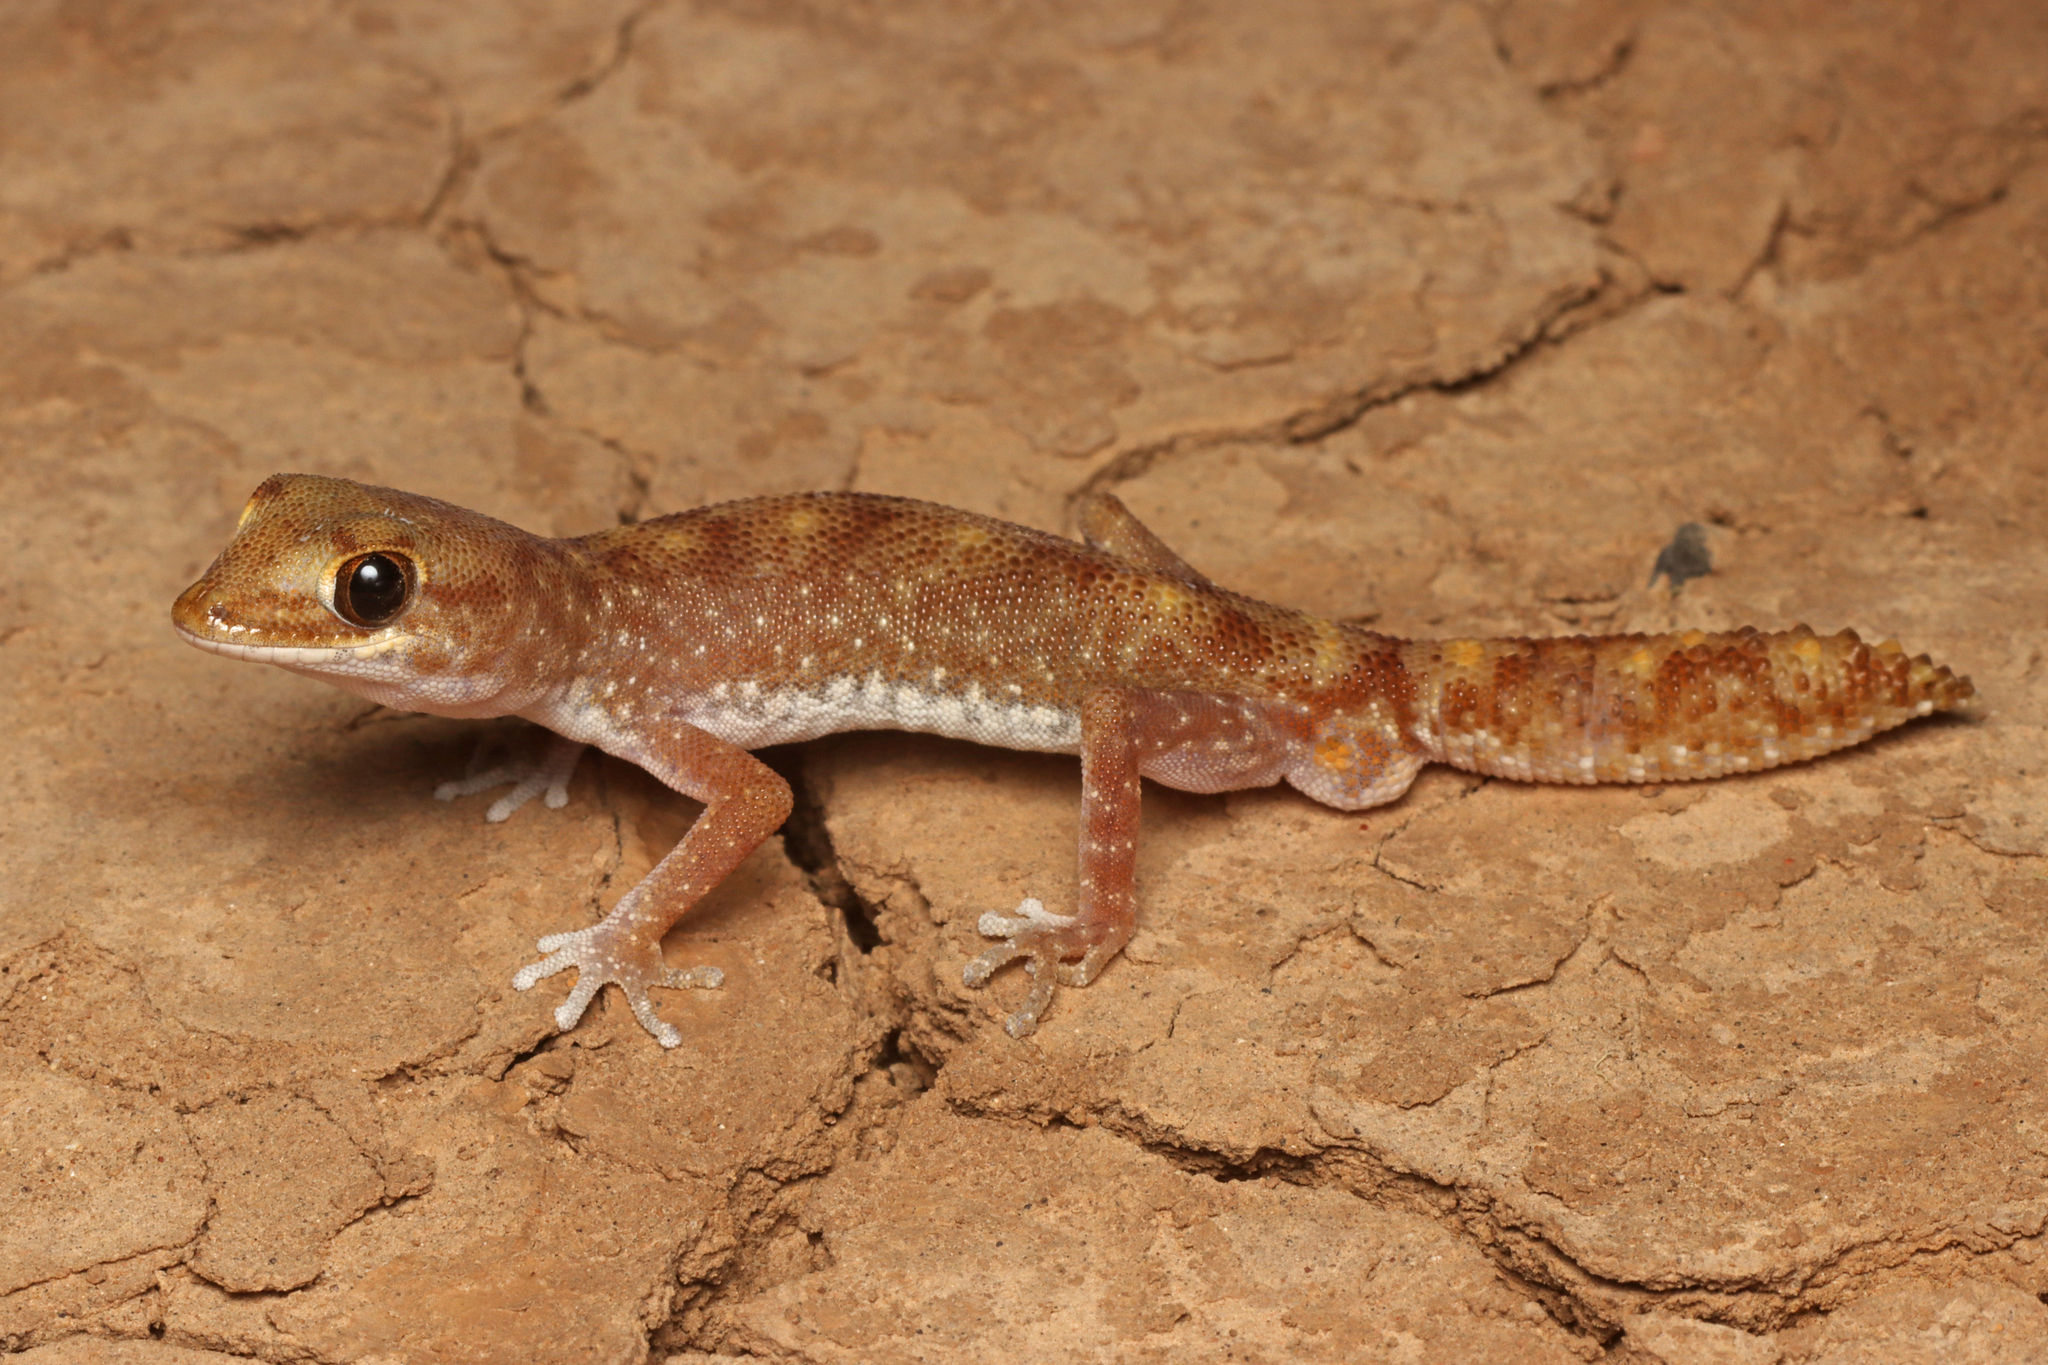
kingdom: Animalia
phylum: Chordata
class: Squamata
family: Diplodactylidae
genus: Diplodactylus
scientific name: Diplodactylus tessellatus
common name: Tesselated gecko
